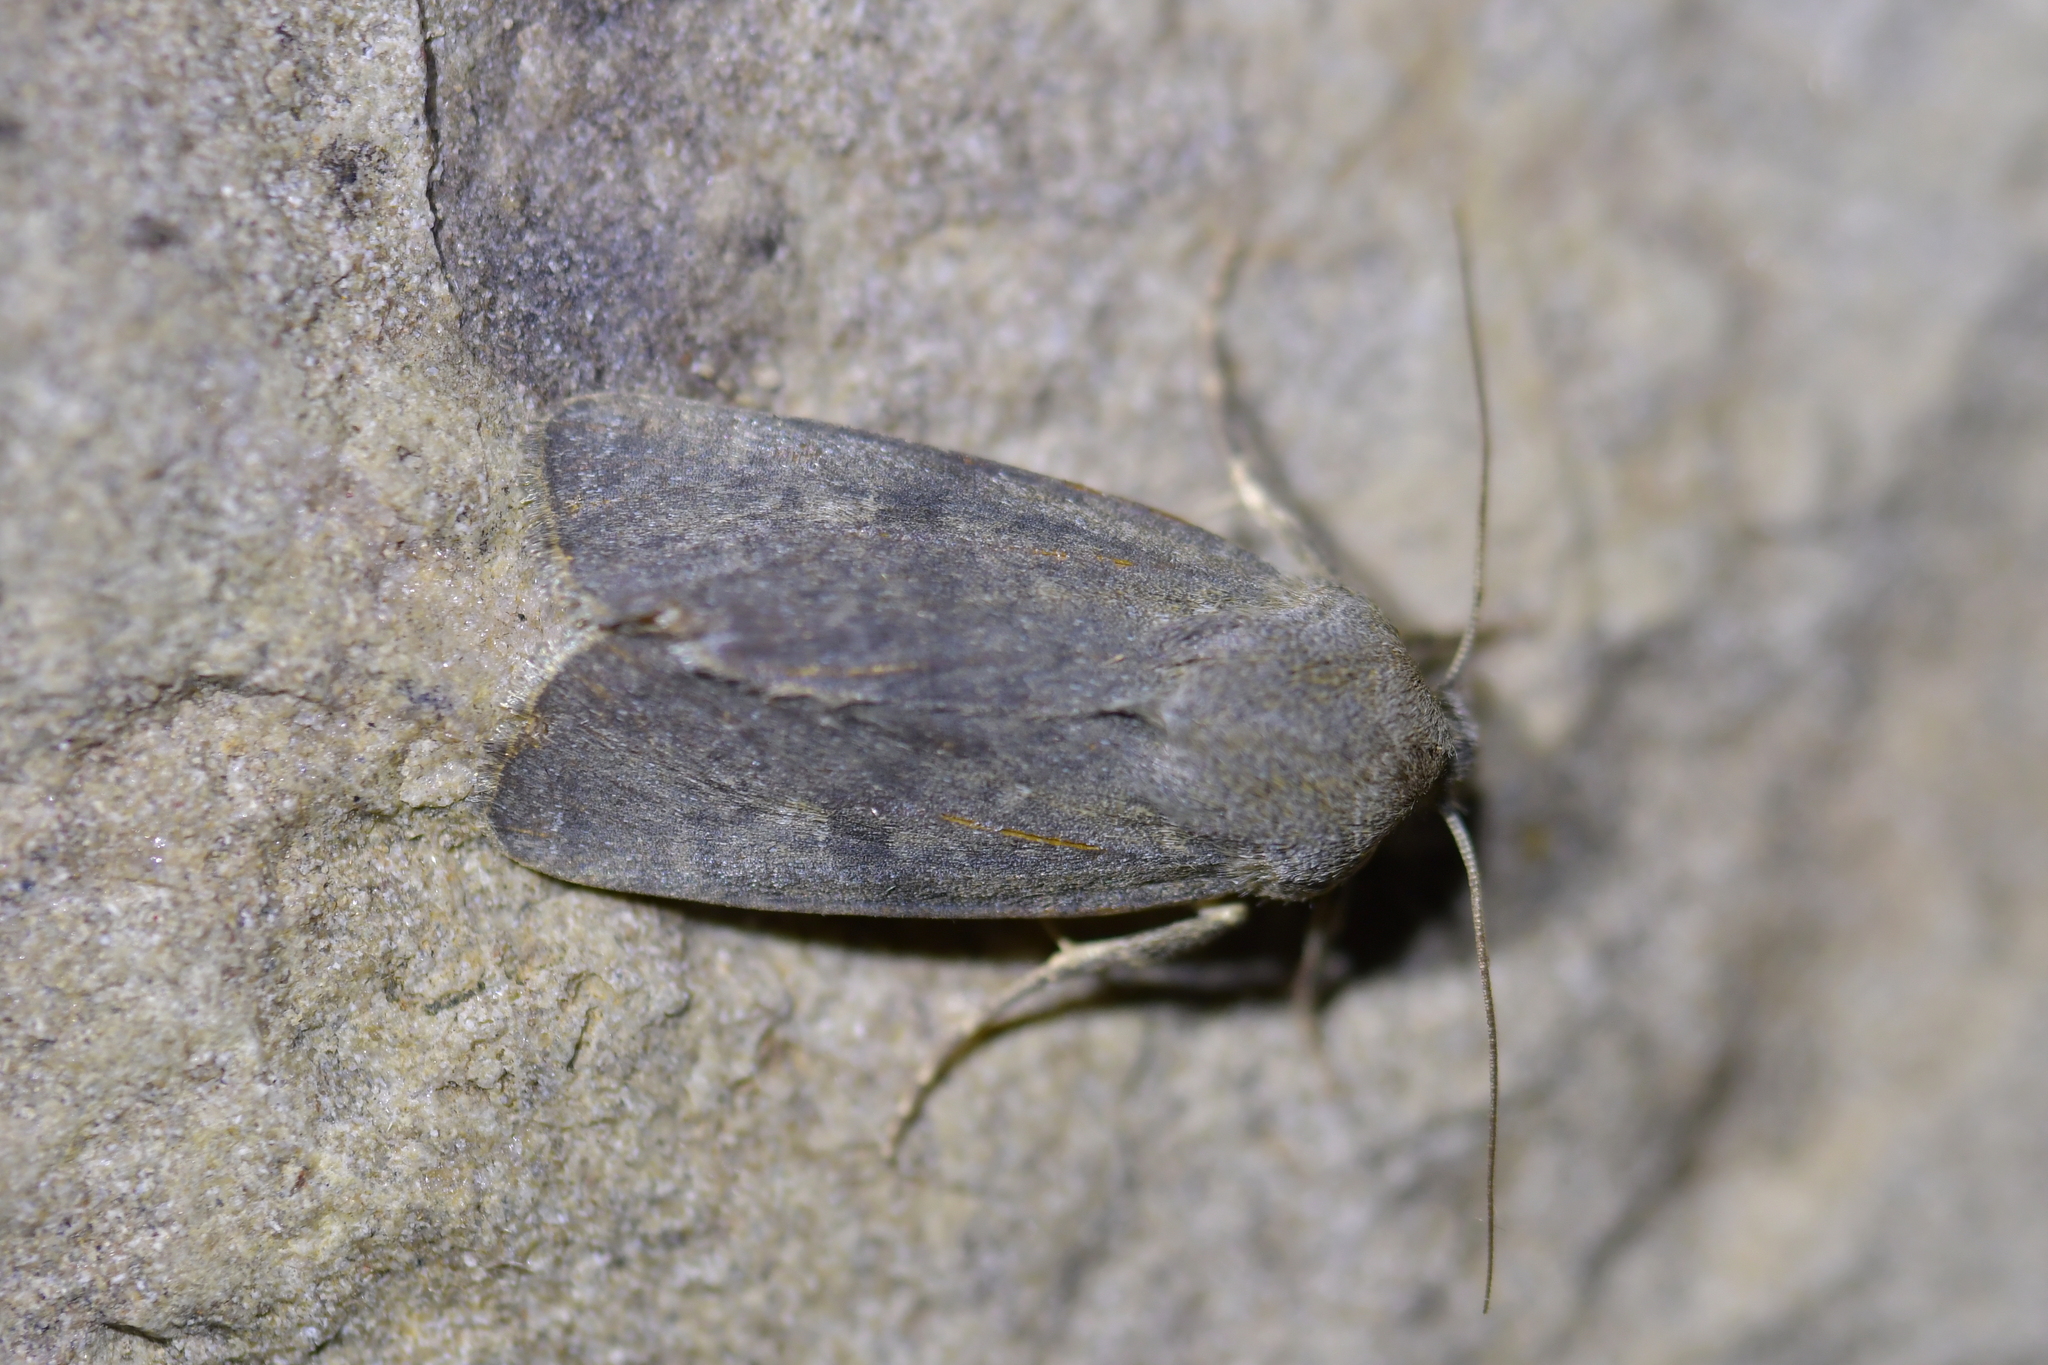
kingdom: Animalia
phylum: Arthropoda
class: Insecta
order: Lepidoptera
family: Noctuidae
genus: Physetica
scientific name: Physetica caerulea
